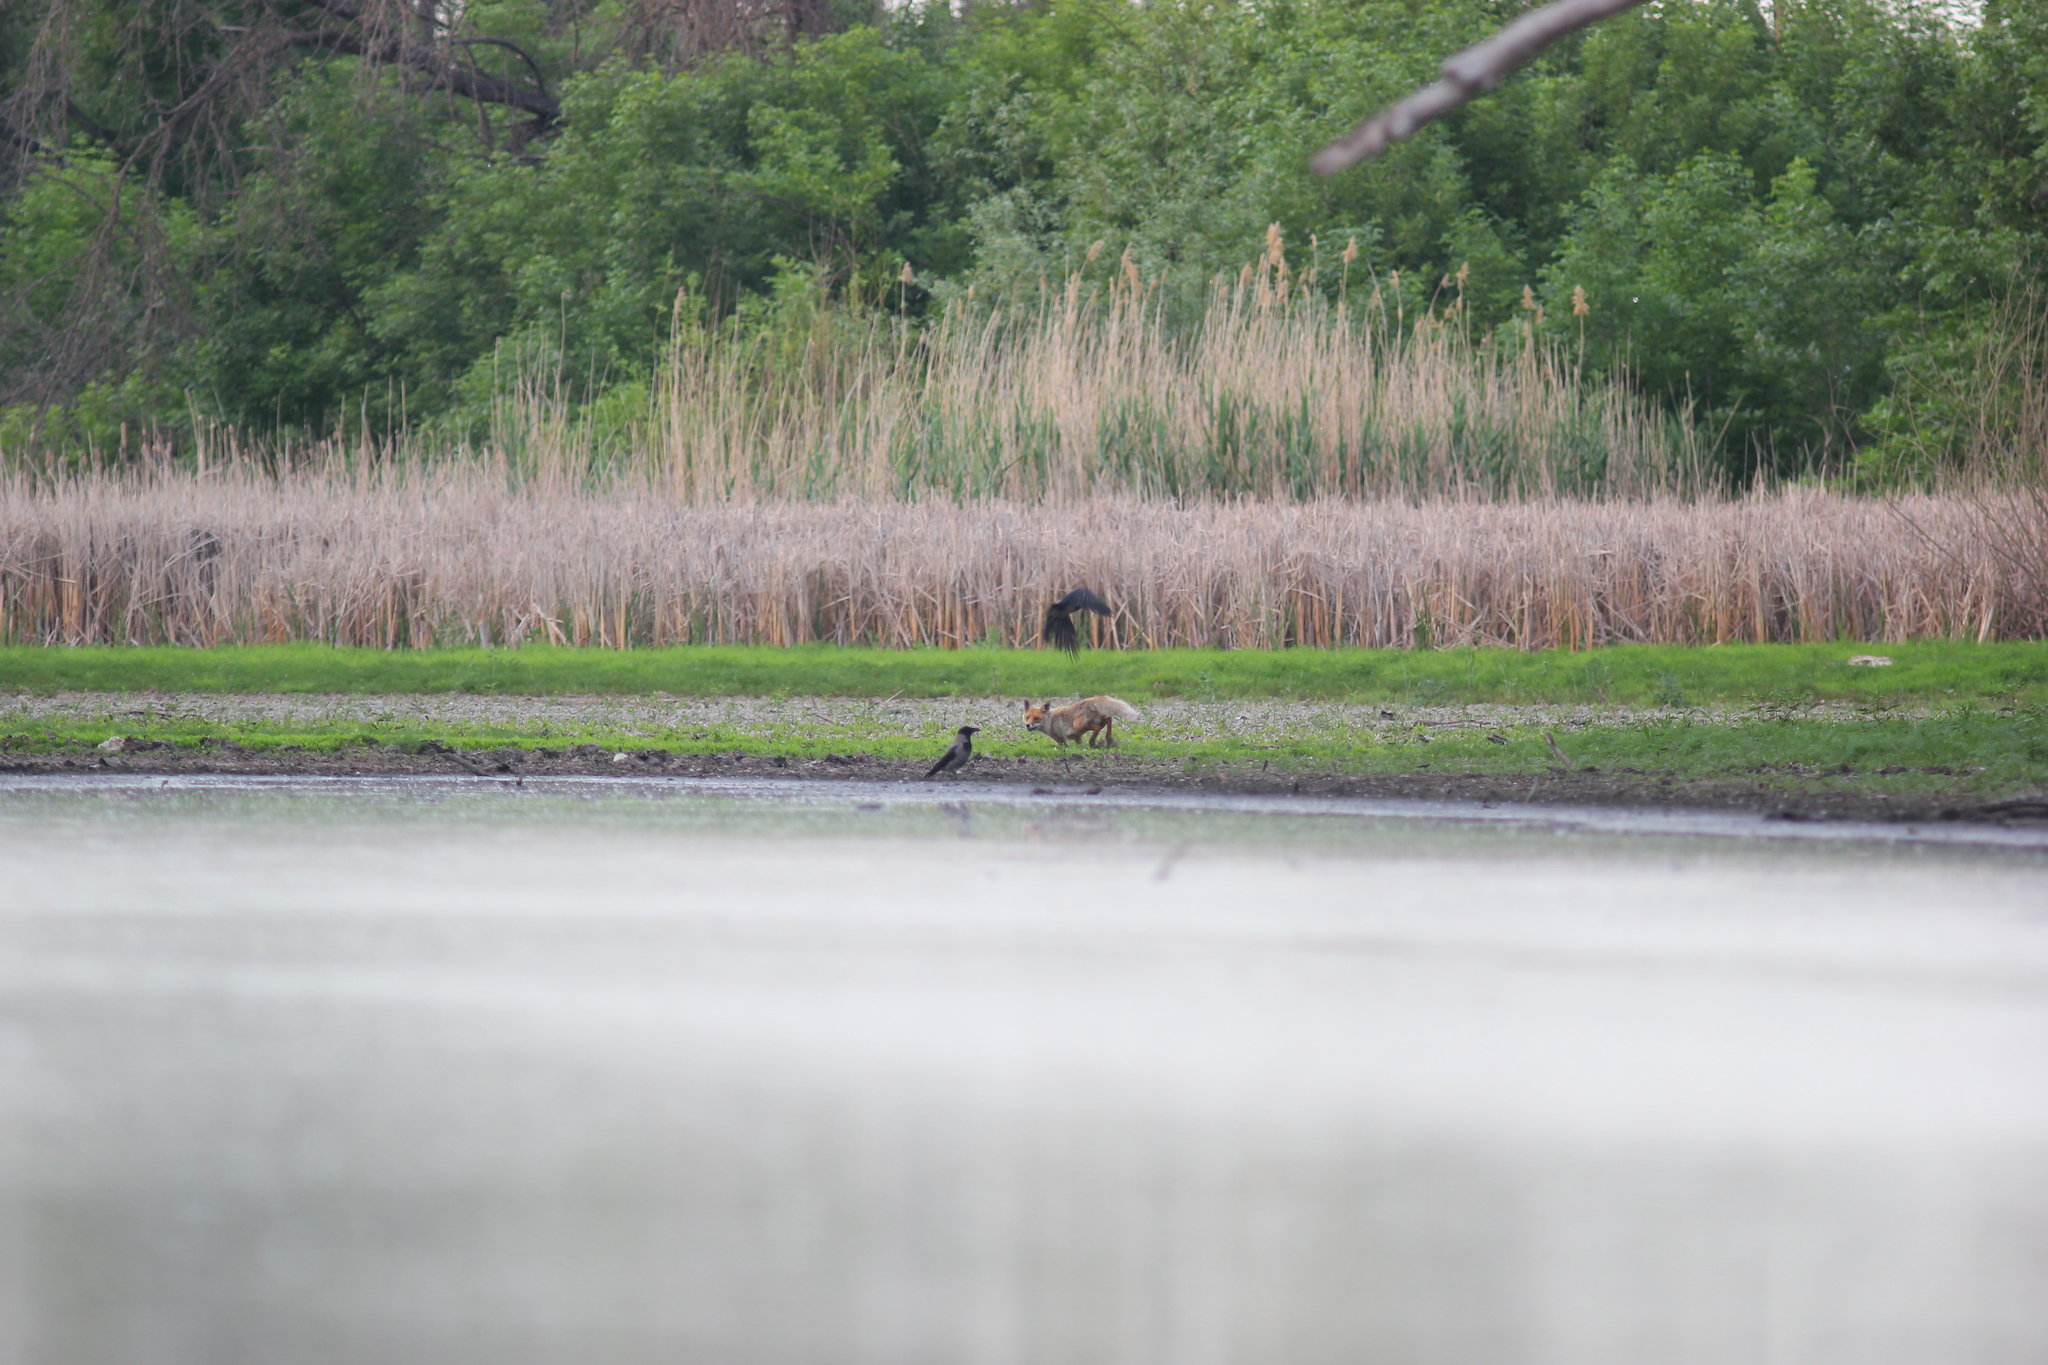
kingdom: Animalia
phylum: Chordata
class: Mammalia
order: Carnivora
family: Canidae
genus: Vulpes
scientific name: Vulpes vulpes
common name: Red fox
